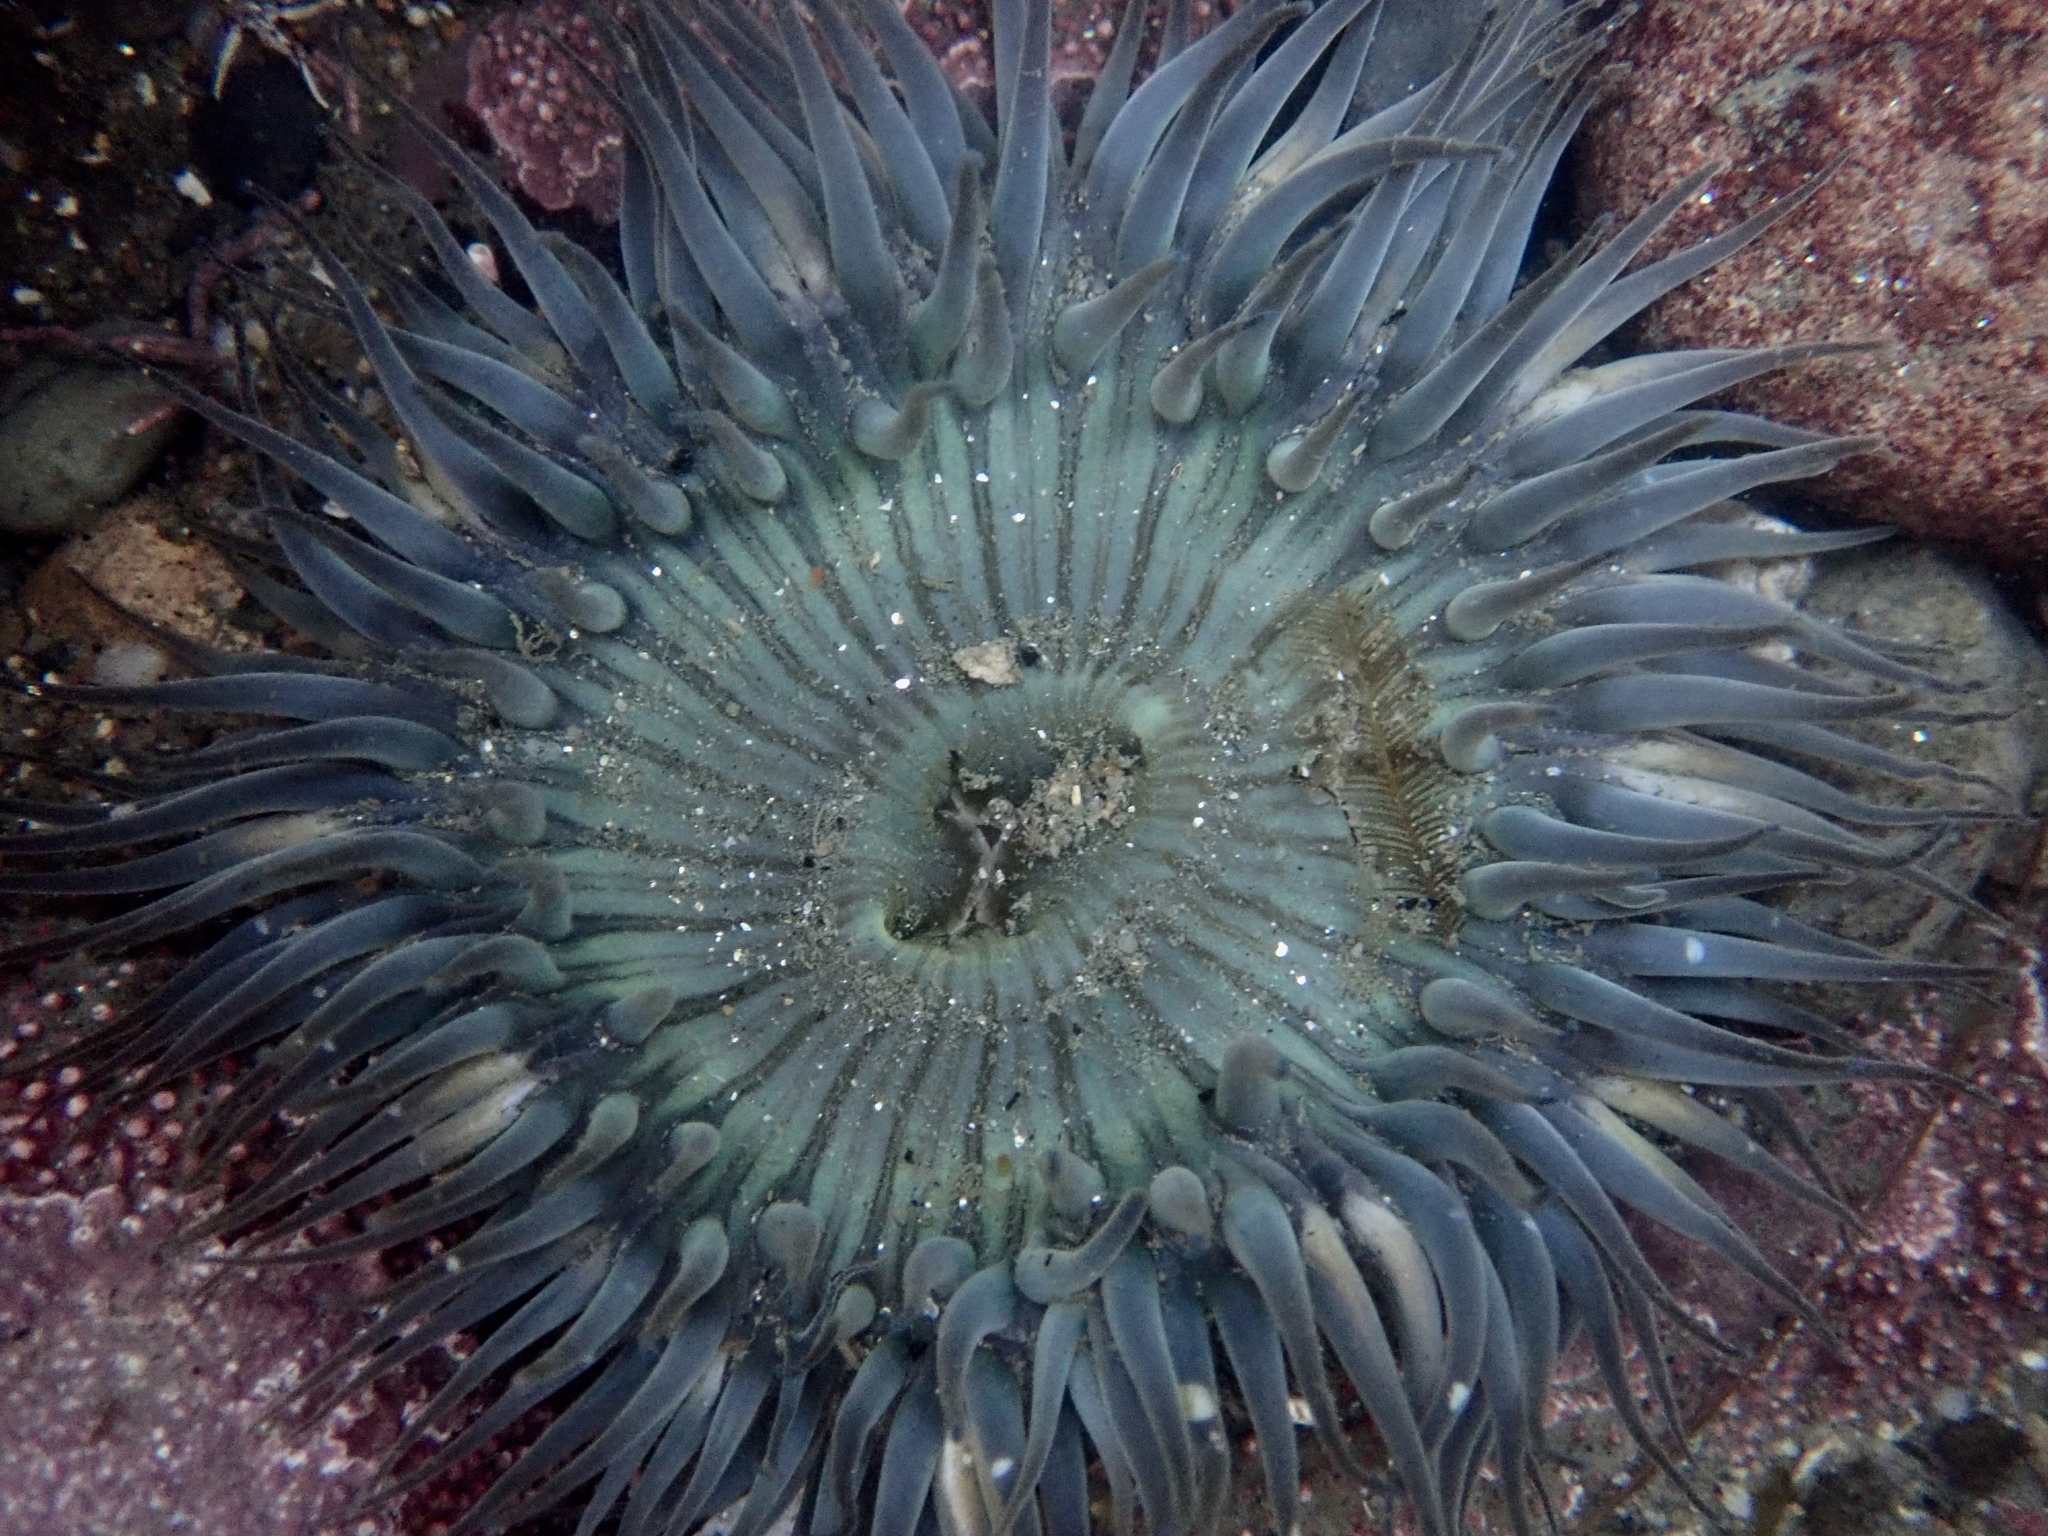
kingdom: Animalia
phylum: Cnidaria
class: Anthozoa
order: Actiniaria
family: Actiniidae
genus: Anthopleura
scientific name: Anthopleura sola
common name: Sun anemone
